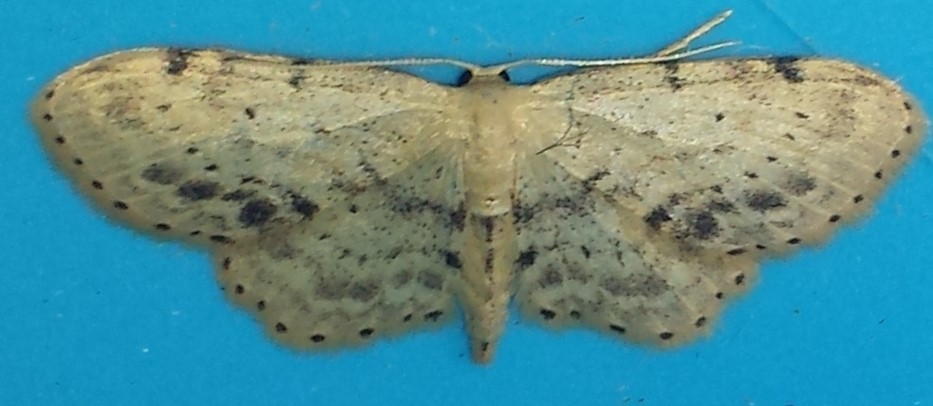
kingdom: Animalia
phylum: Arthropoda
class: Insecta
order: Lepidoptera
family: Geometridae
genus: Idaea
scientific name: Idaea dimidiata
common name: Single-dotted wave
